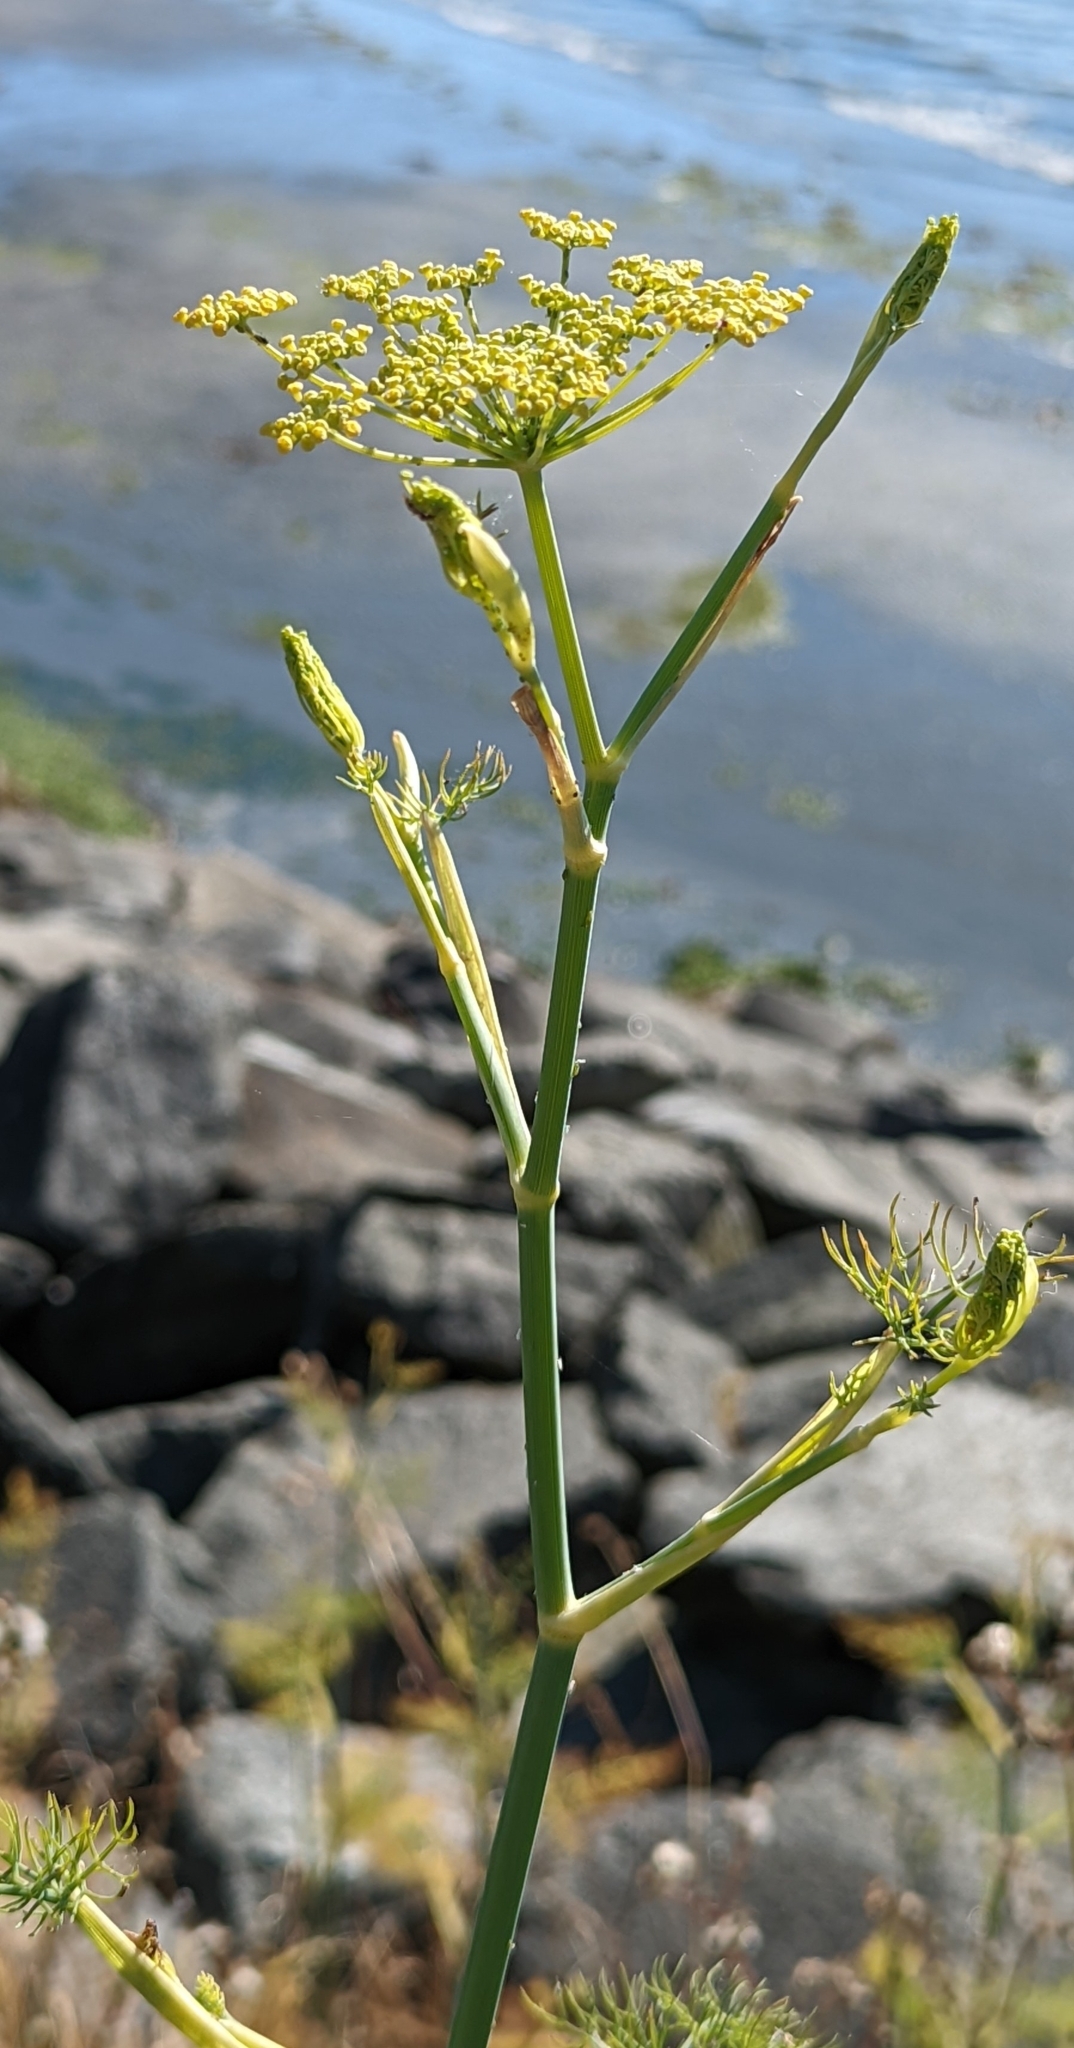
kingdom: Plantae
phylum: Tracheophyta
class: Magnoliopsida
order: Apiales
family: Apiaceae
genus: Foeniculum
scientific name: Foeniculum vulgare
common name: Fennel
